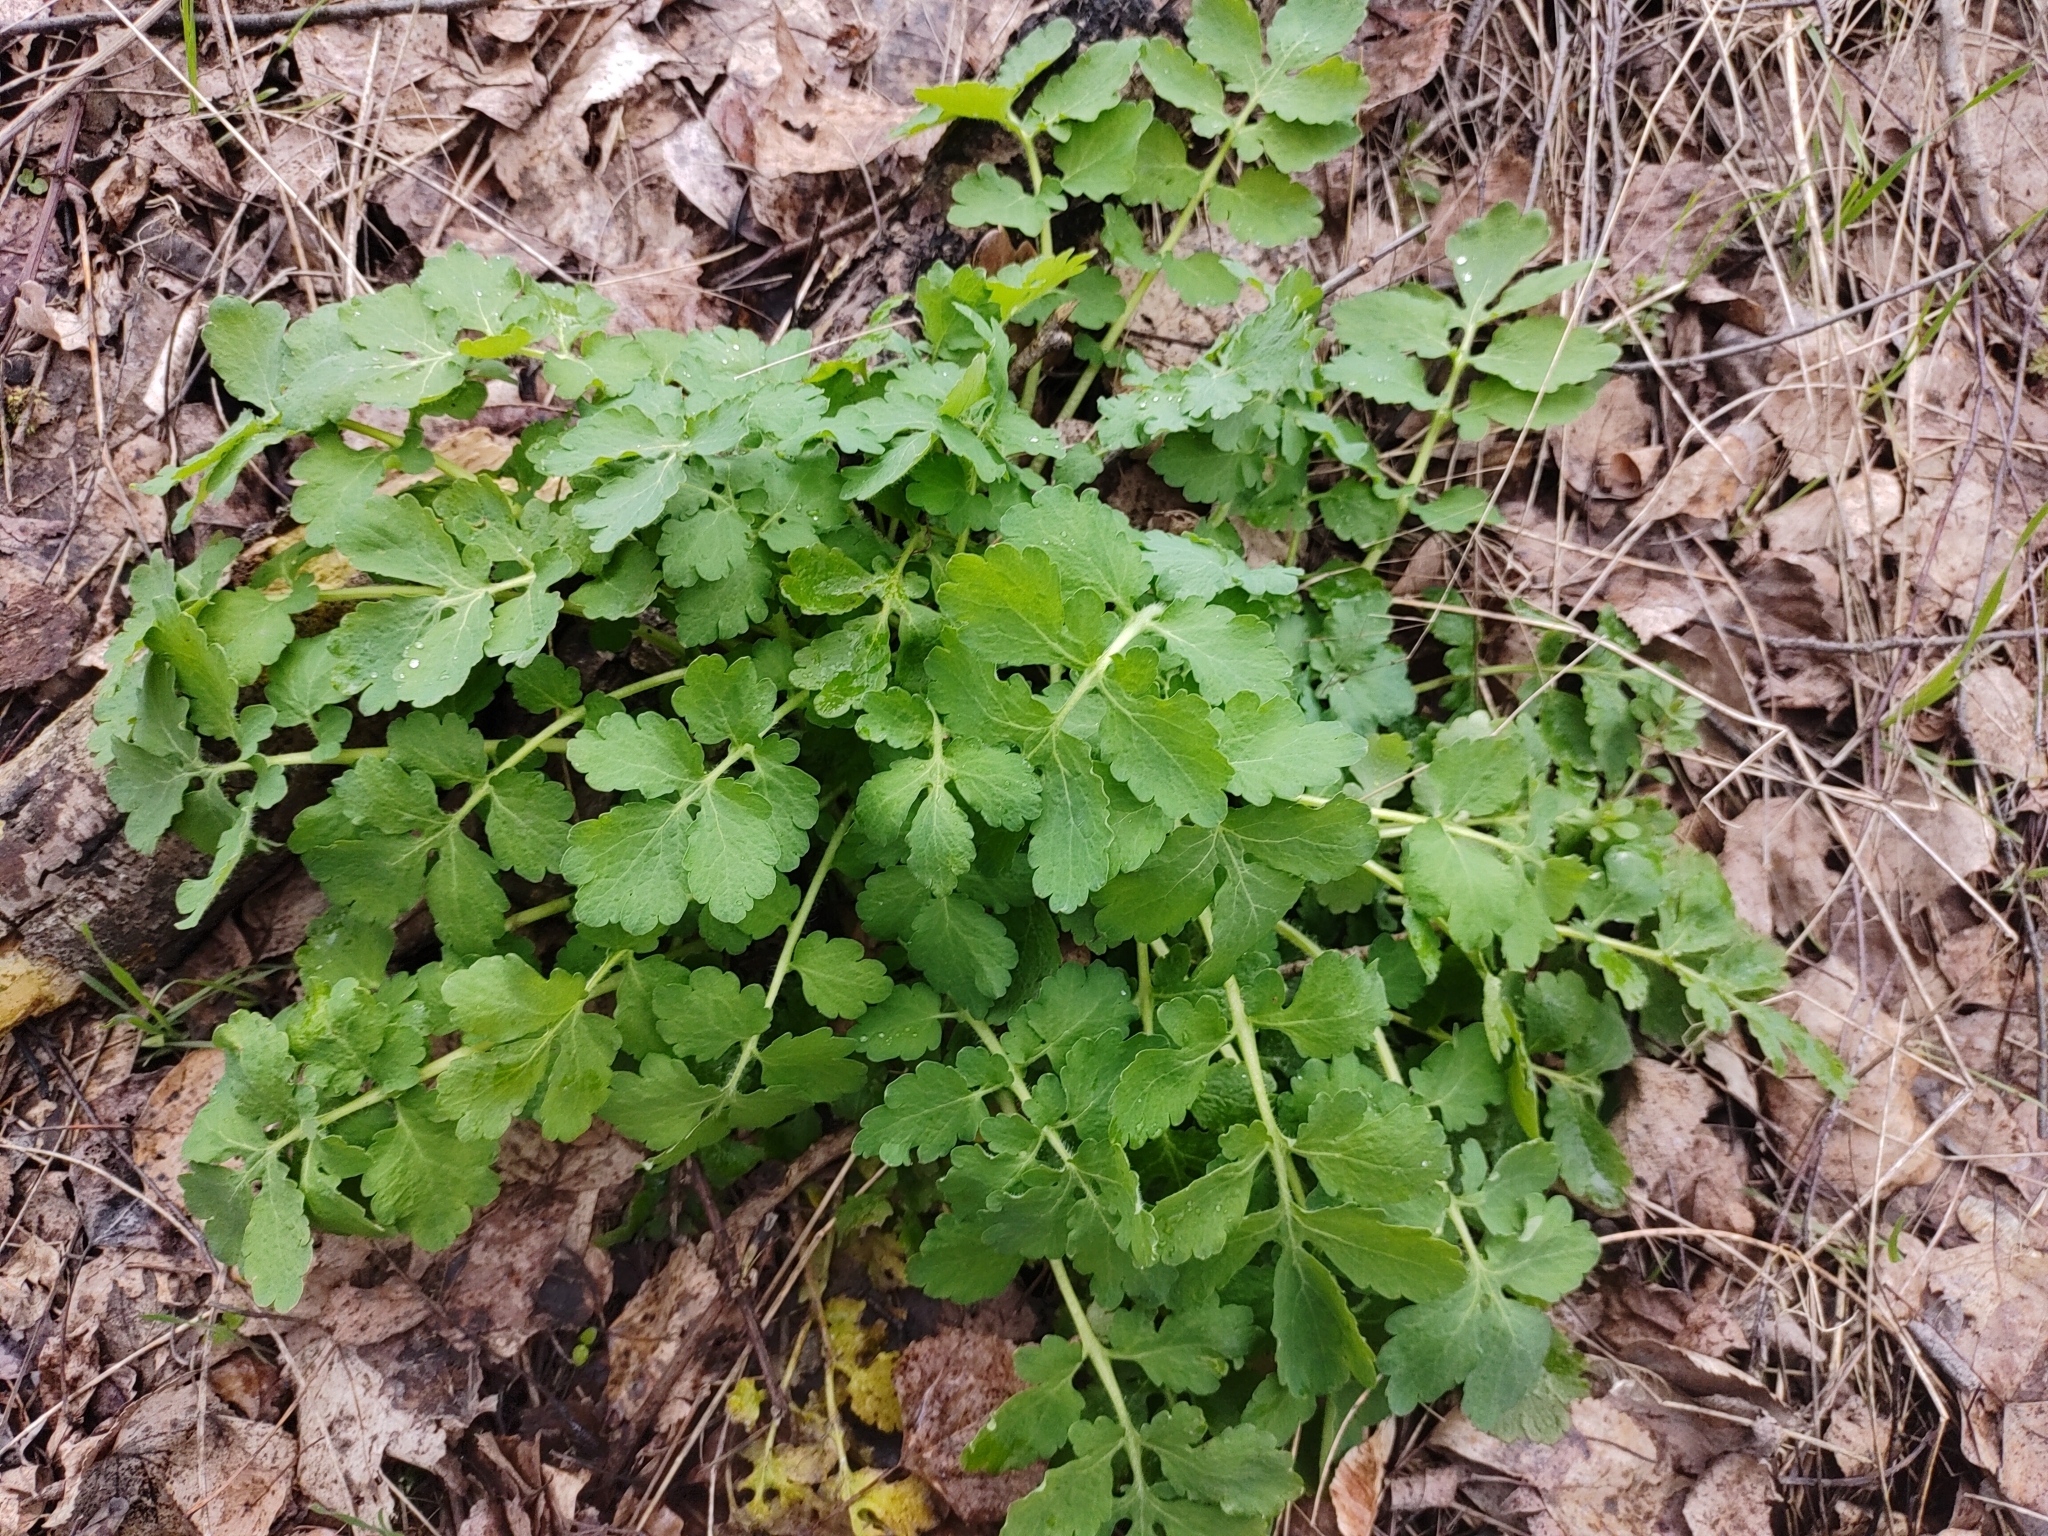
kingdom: Plantae
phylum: Tracheophyta
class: Magnoliopsida
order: Ranunculales
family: Papaveraceae
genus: Chelidonium
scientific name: Chelidonium majus
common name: Greater celandine
